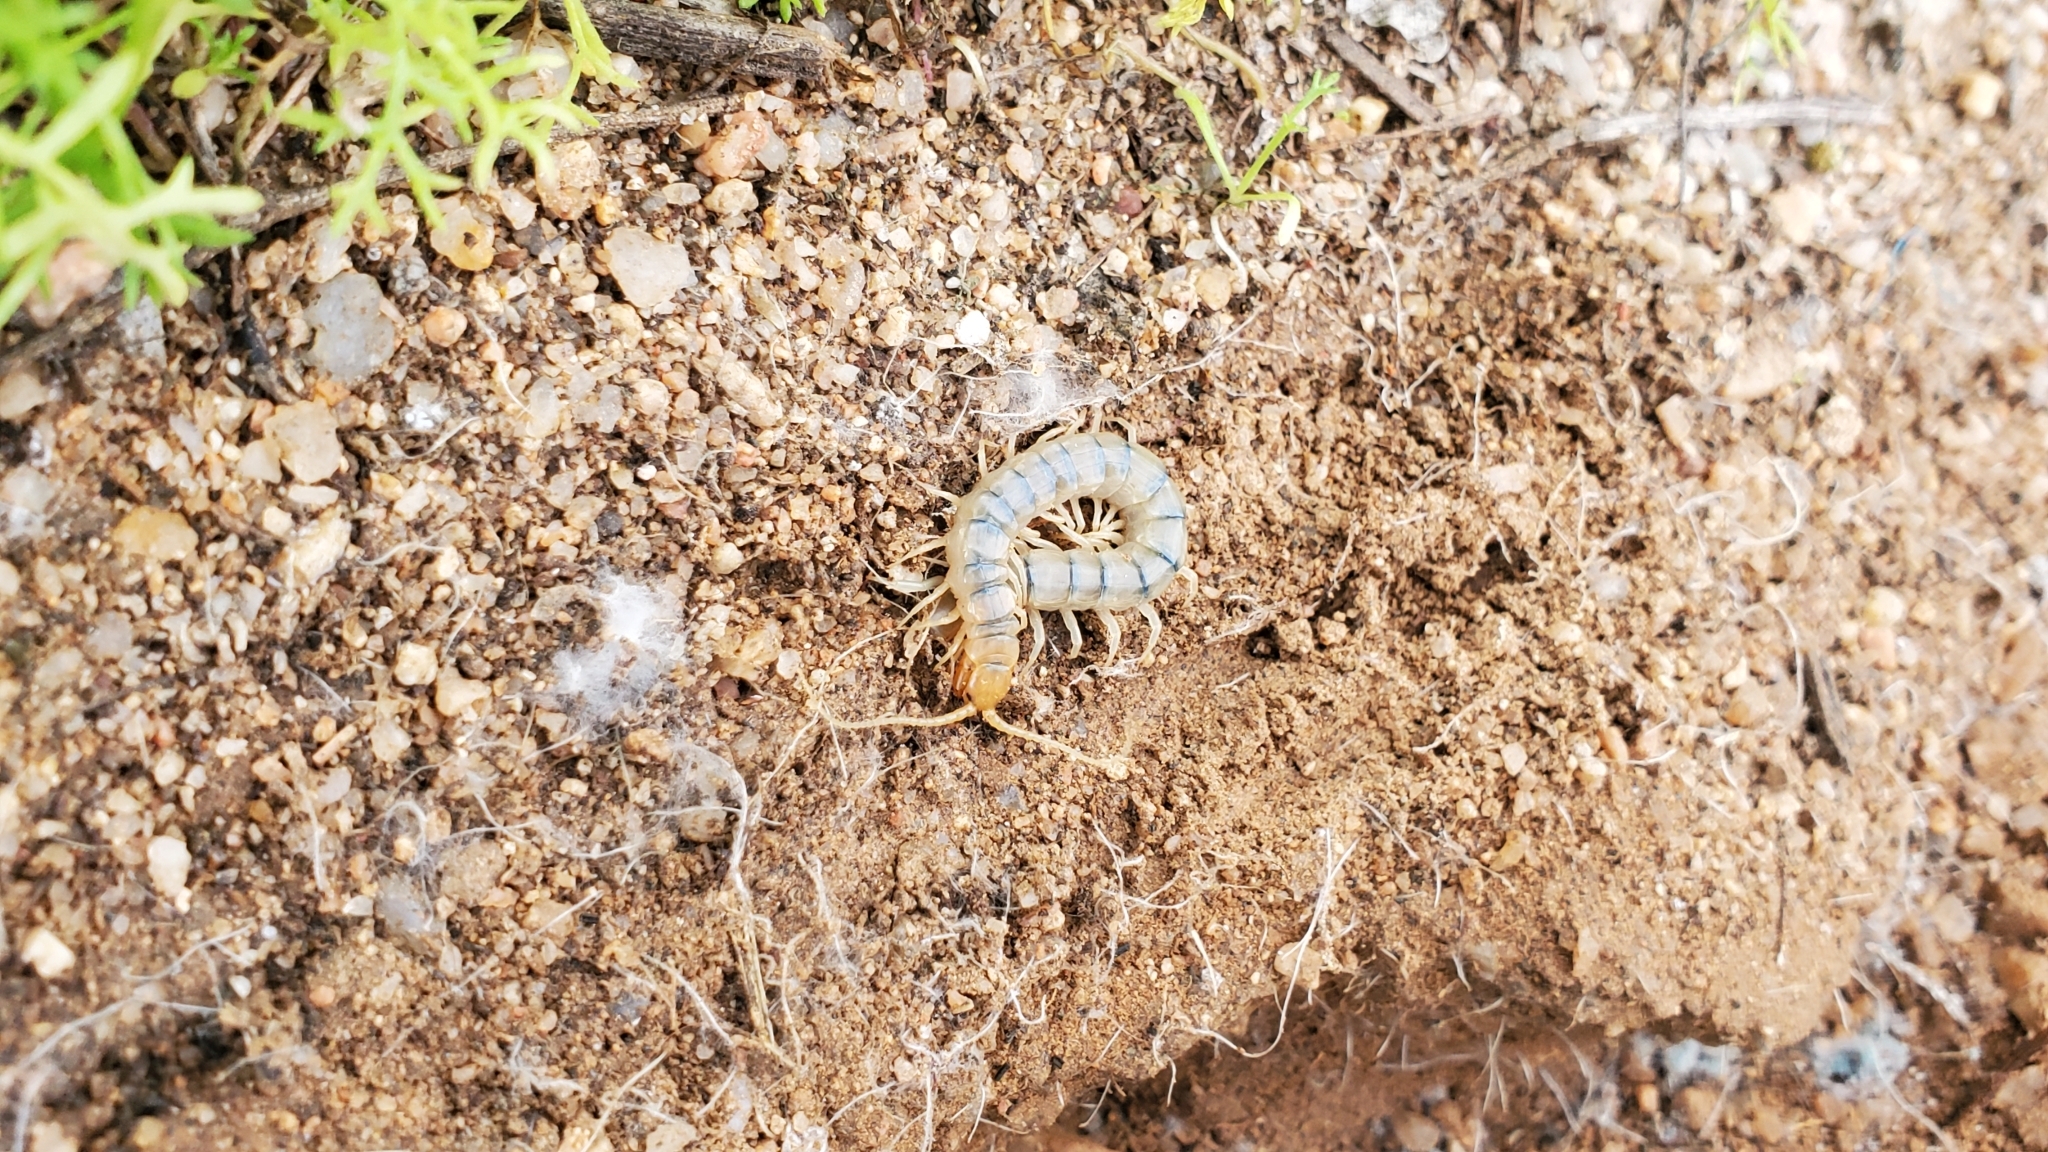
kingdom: Animalia
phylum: Arthropoda
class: Chilopoda
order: Scolopendromorpha
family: Scolopendridae
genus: Scolopendra
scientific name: Scolopendra polymorpha
